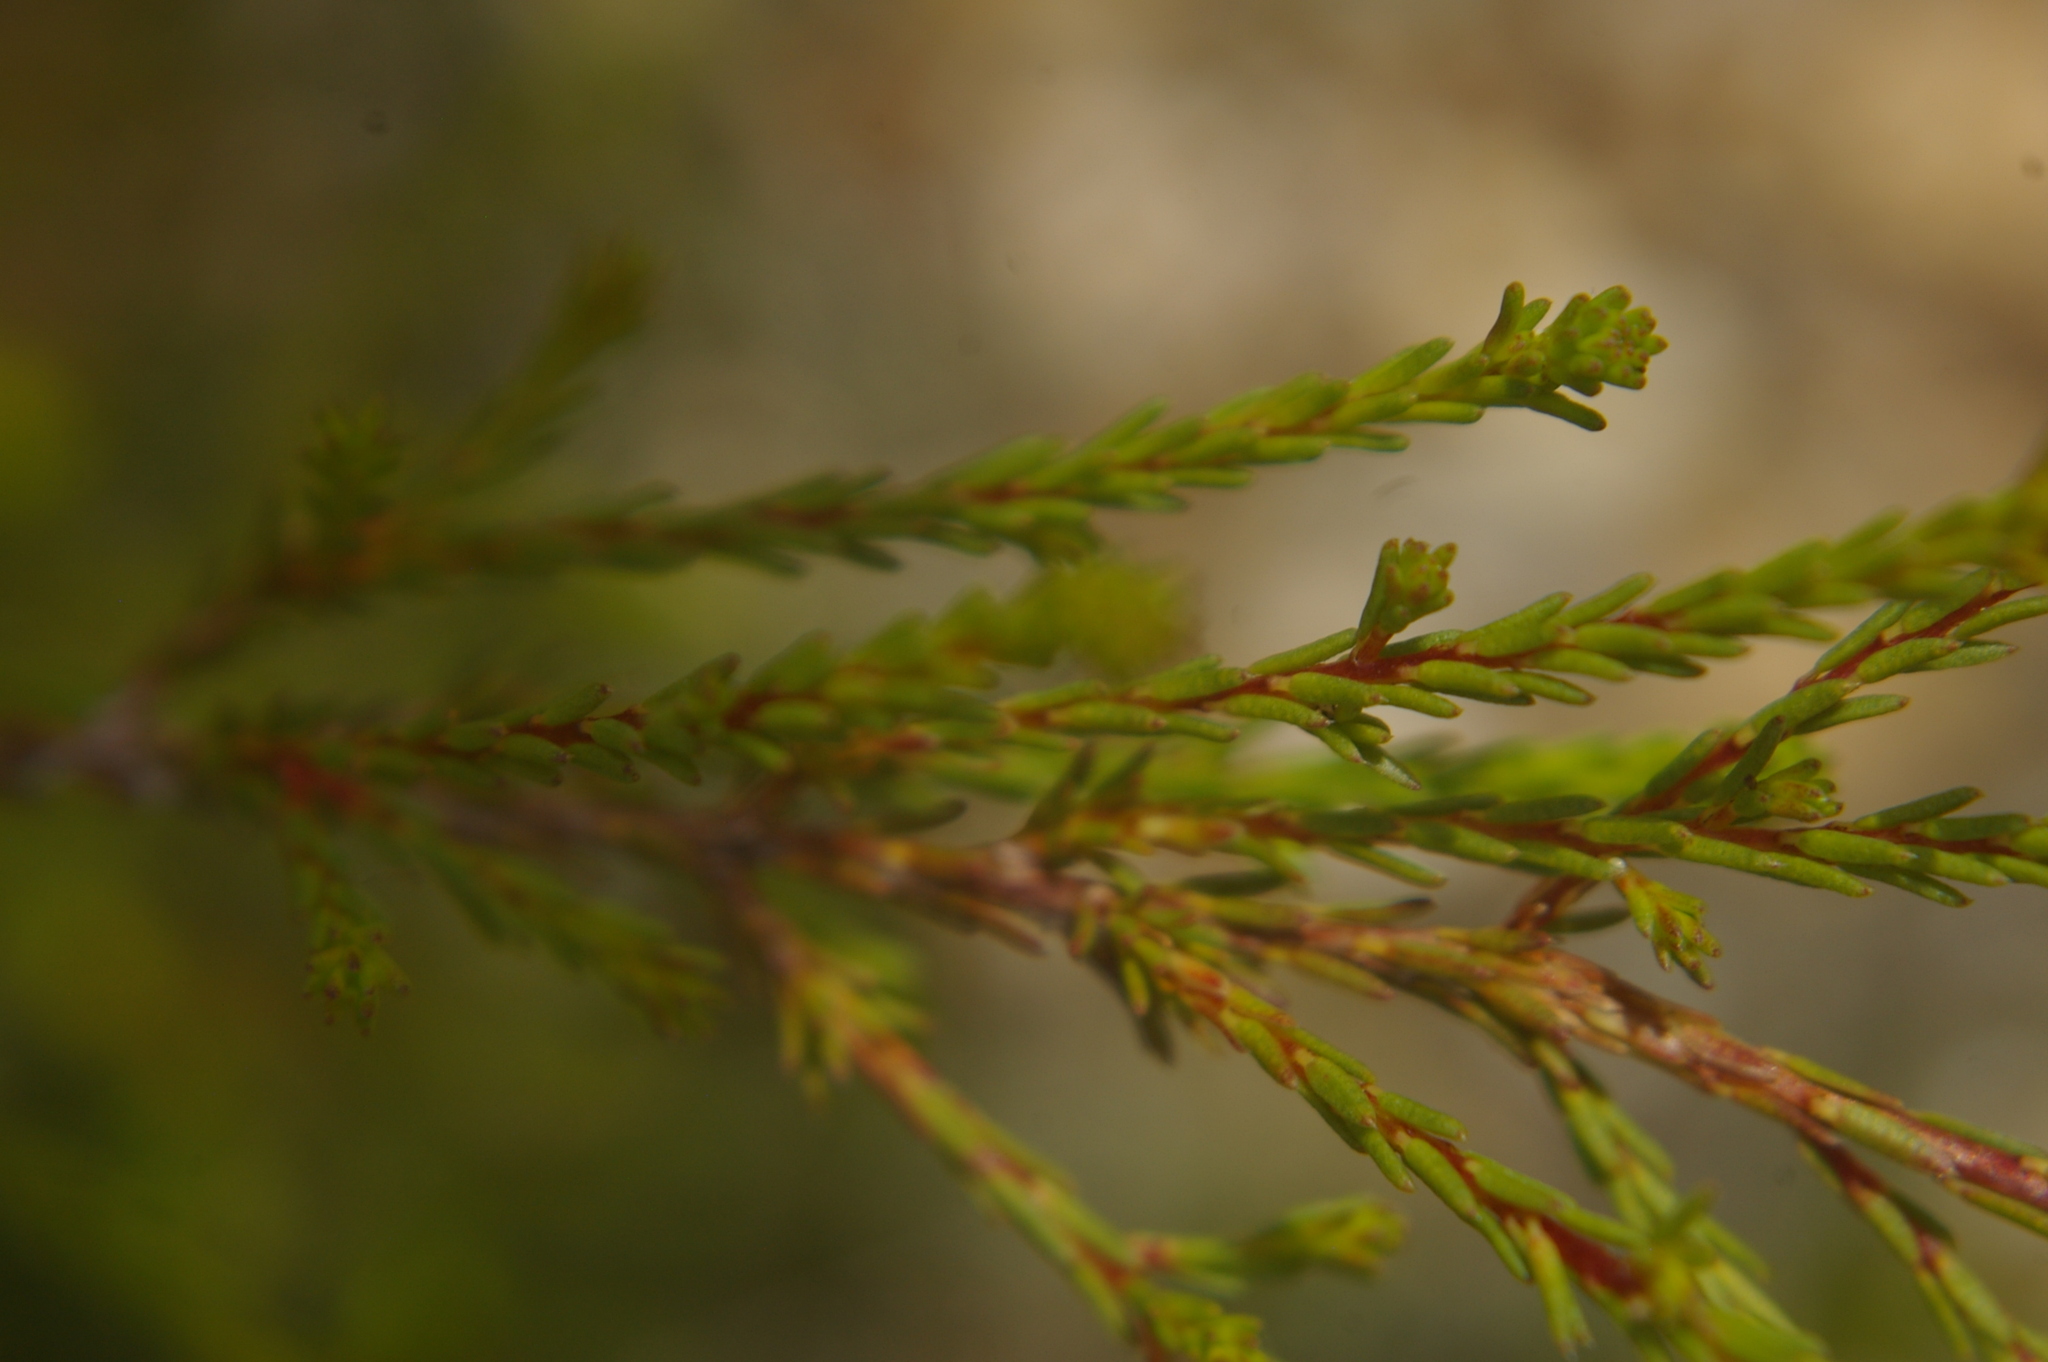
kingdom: Plantae
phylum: Tracheophyta
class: Magnoliopsida
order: Myrtales
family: Myrtaceae
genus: Calytrix
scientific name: Calytrix tetragona
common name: Common fringe myrtle
